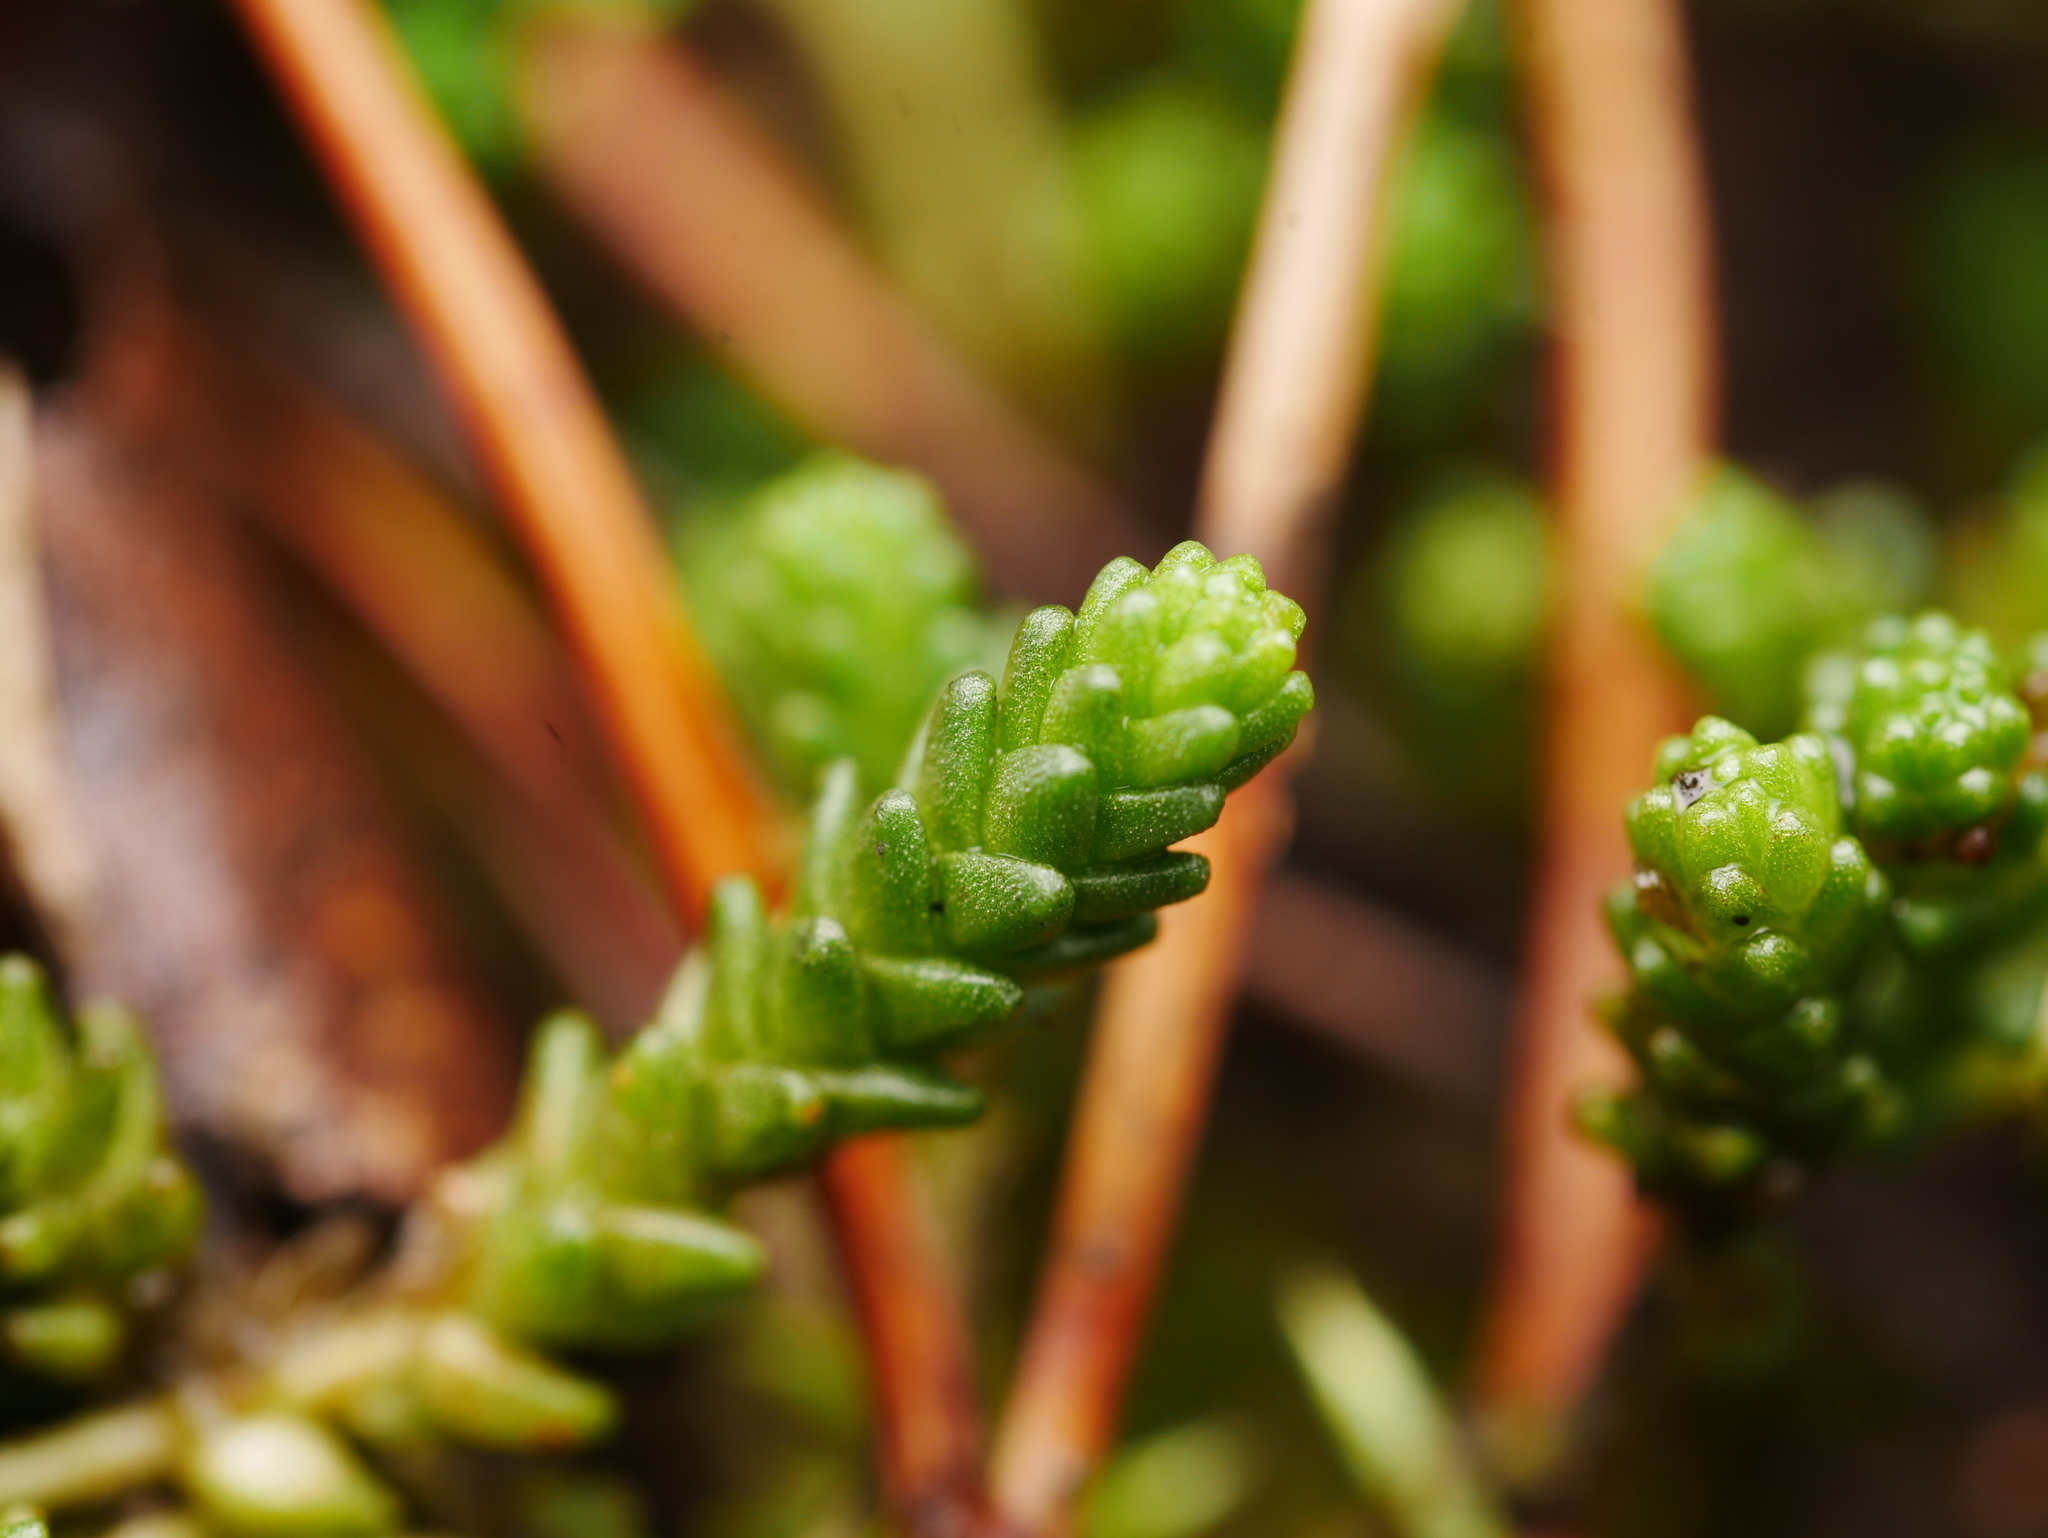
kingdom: Plantae
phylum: Tracheophyta
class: Magnoliopsida
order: Saxifragales
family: Crassulaceae
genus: Sedum
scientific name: Sedum acre
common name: Biting stonecrop
